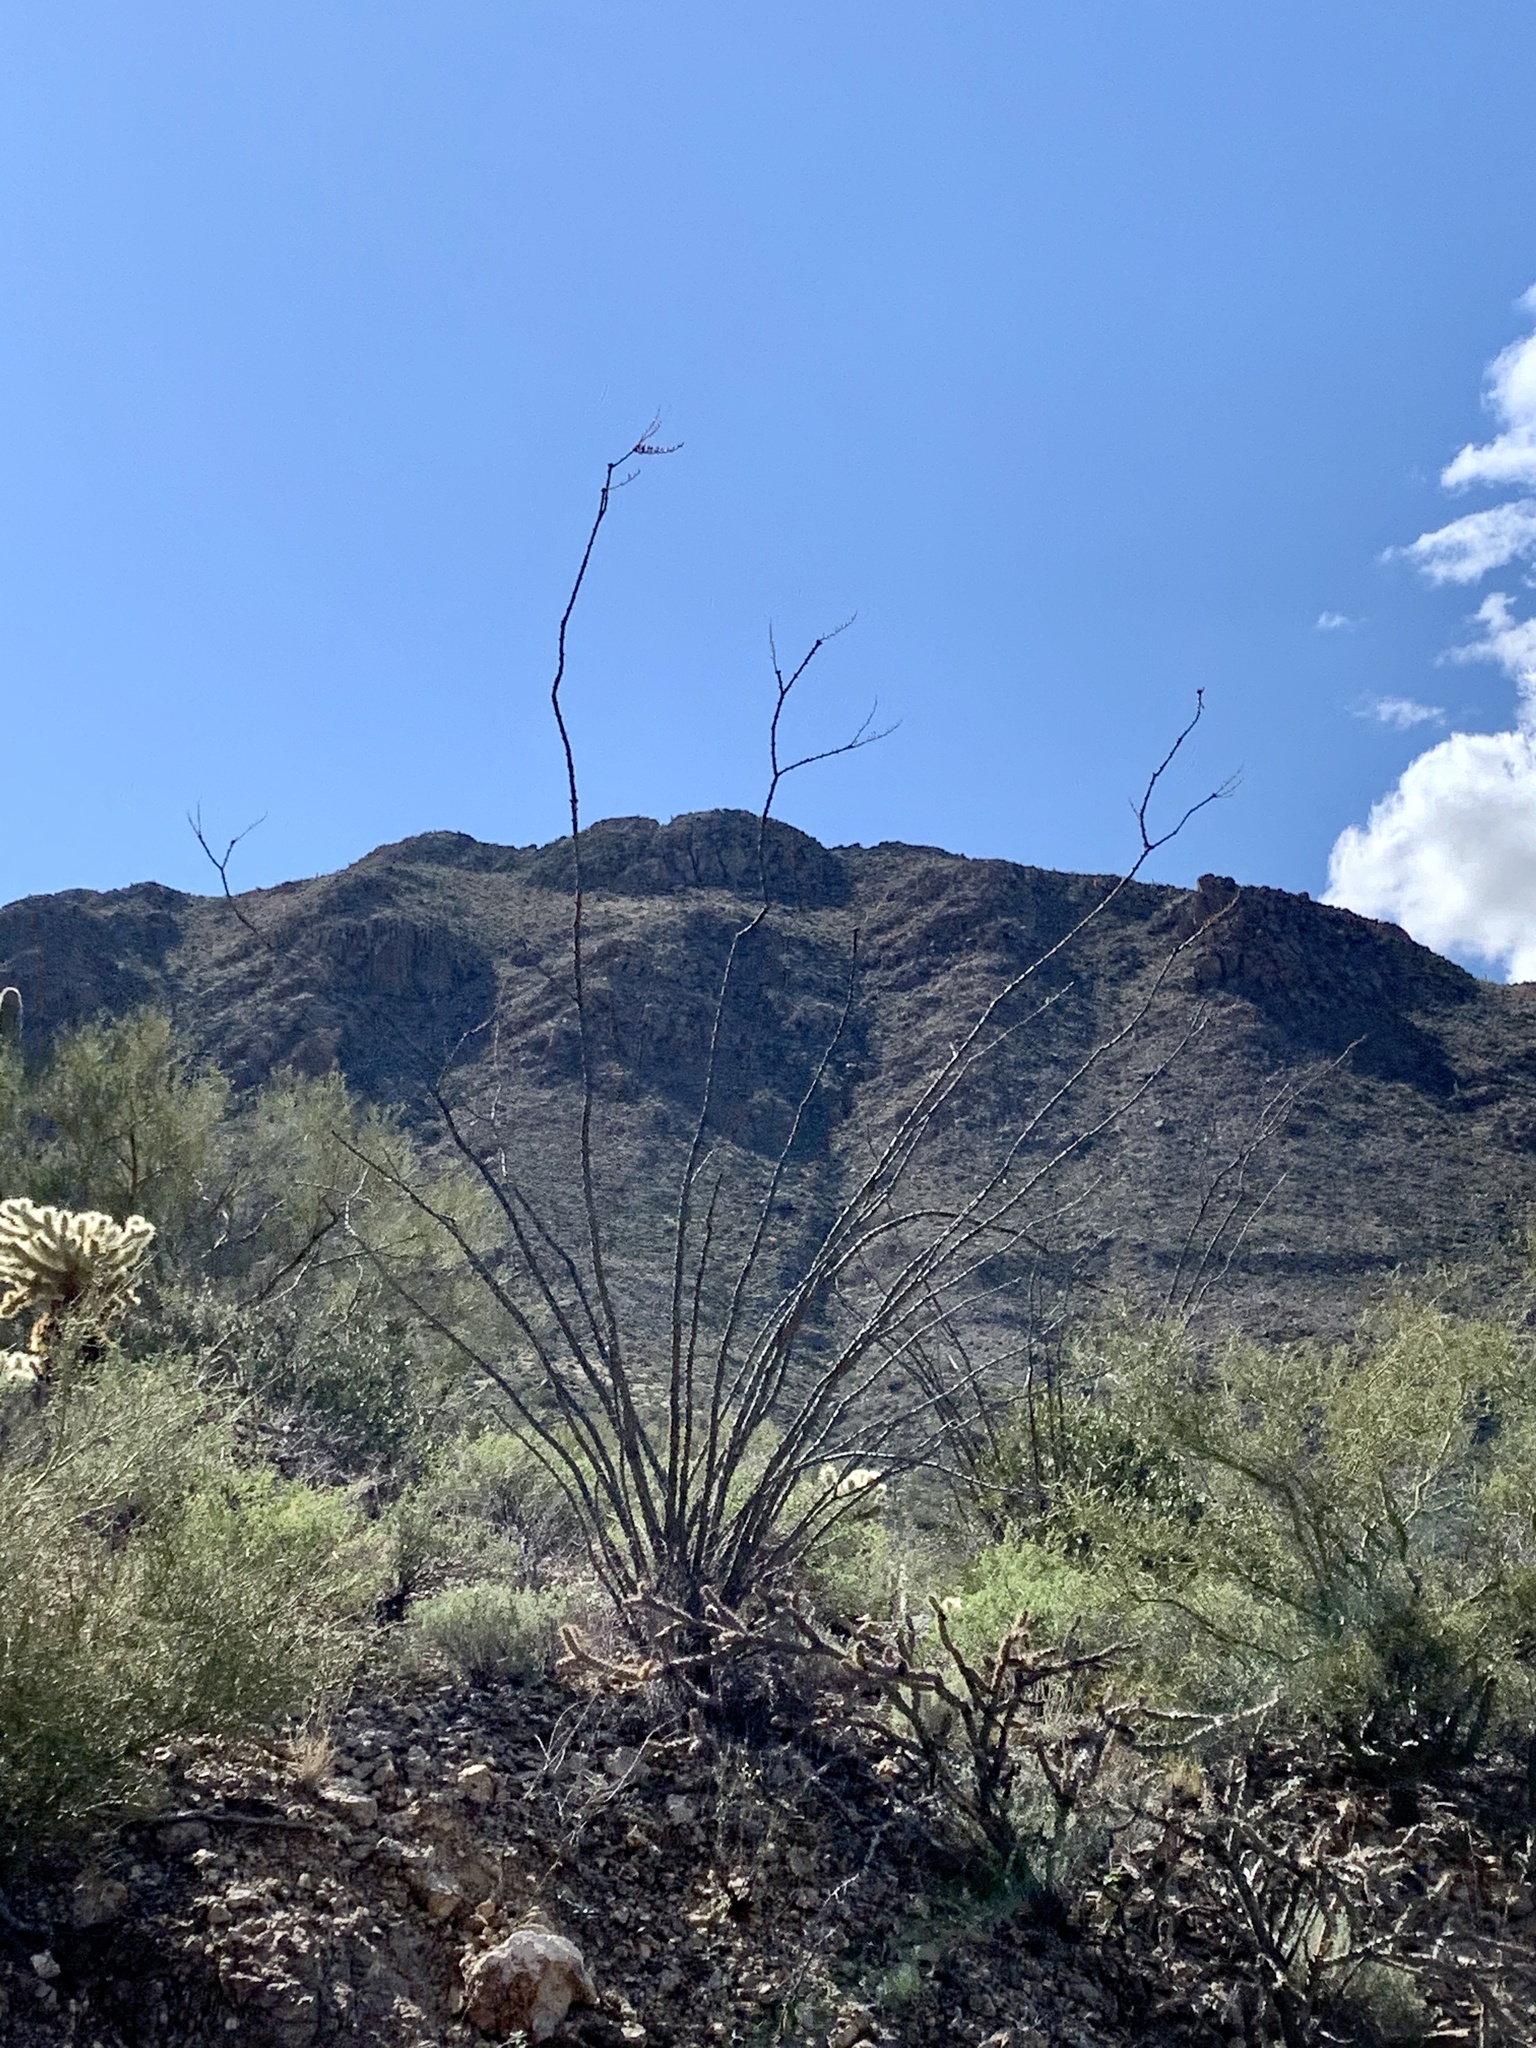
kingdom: Plantae
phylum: Tracheophyta
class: Magnoliopsida
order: Ericales
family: Fouquieriaceae
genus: Fouquieria
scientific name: Fouquieria splendens
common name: Vine-cactus
